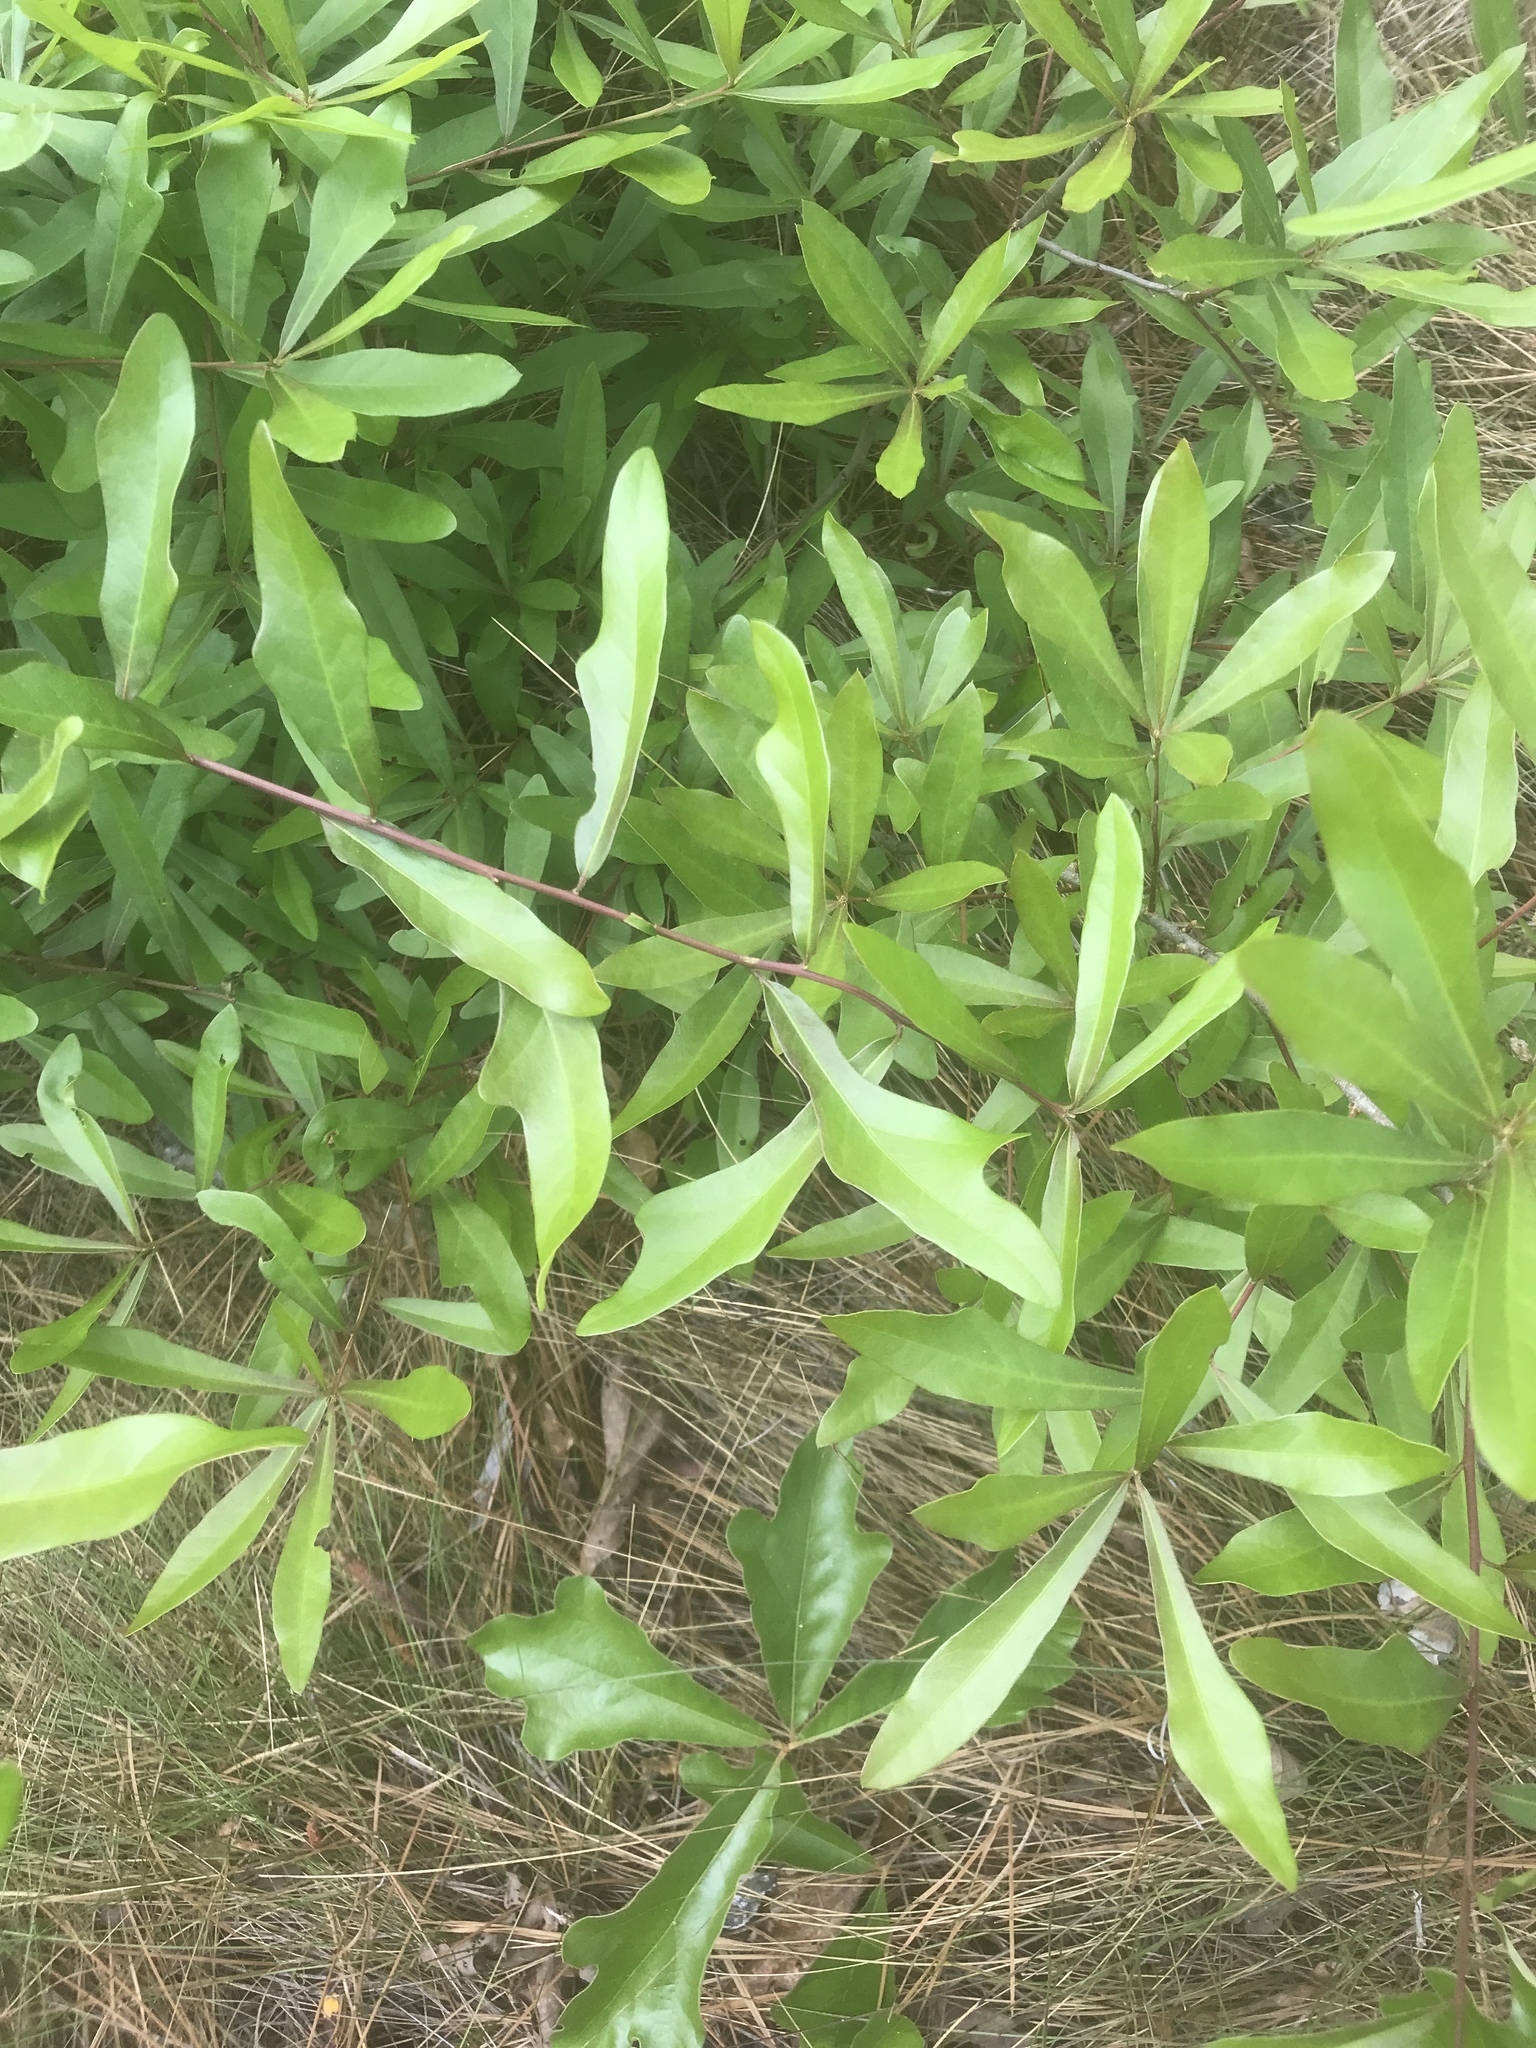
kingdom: Plantae
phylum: Tracheophyta
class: Magnoliopsida
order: Fagales
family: Fagaceae
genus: Quercus
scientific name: Quercus nigra
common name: Water oak
